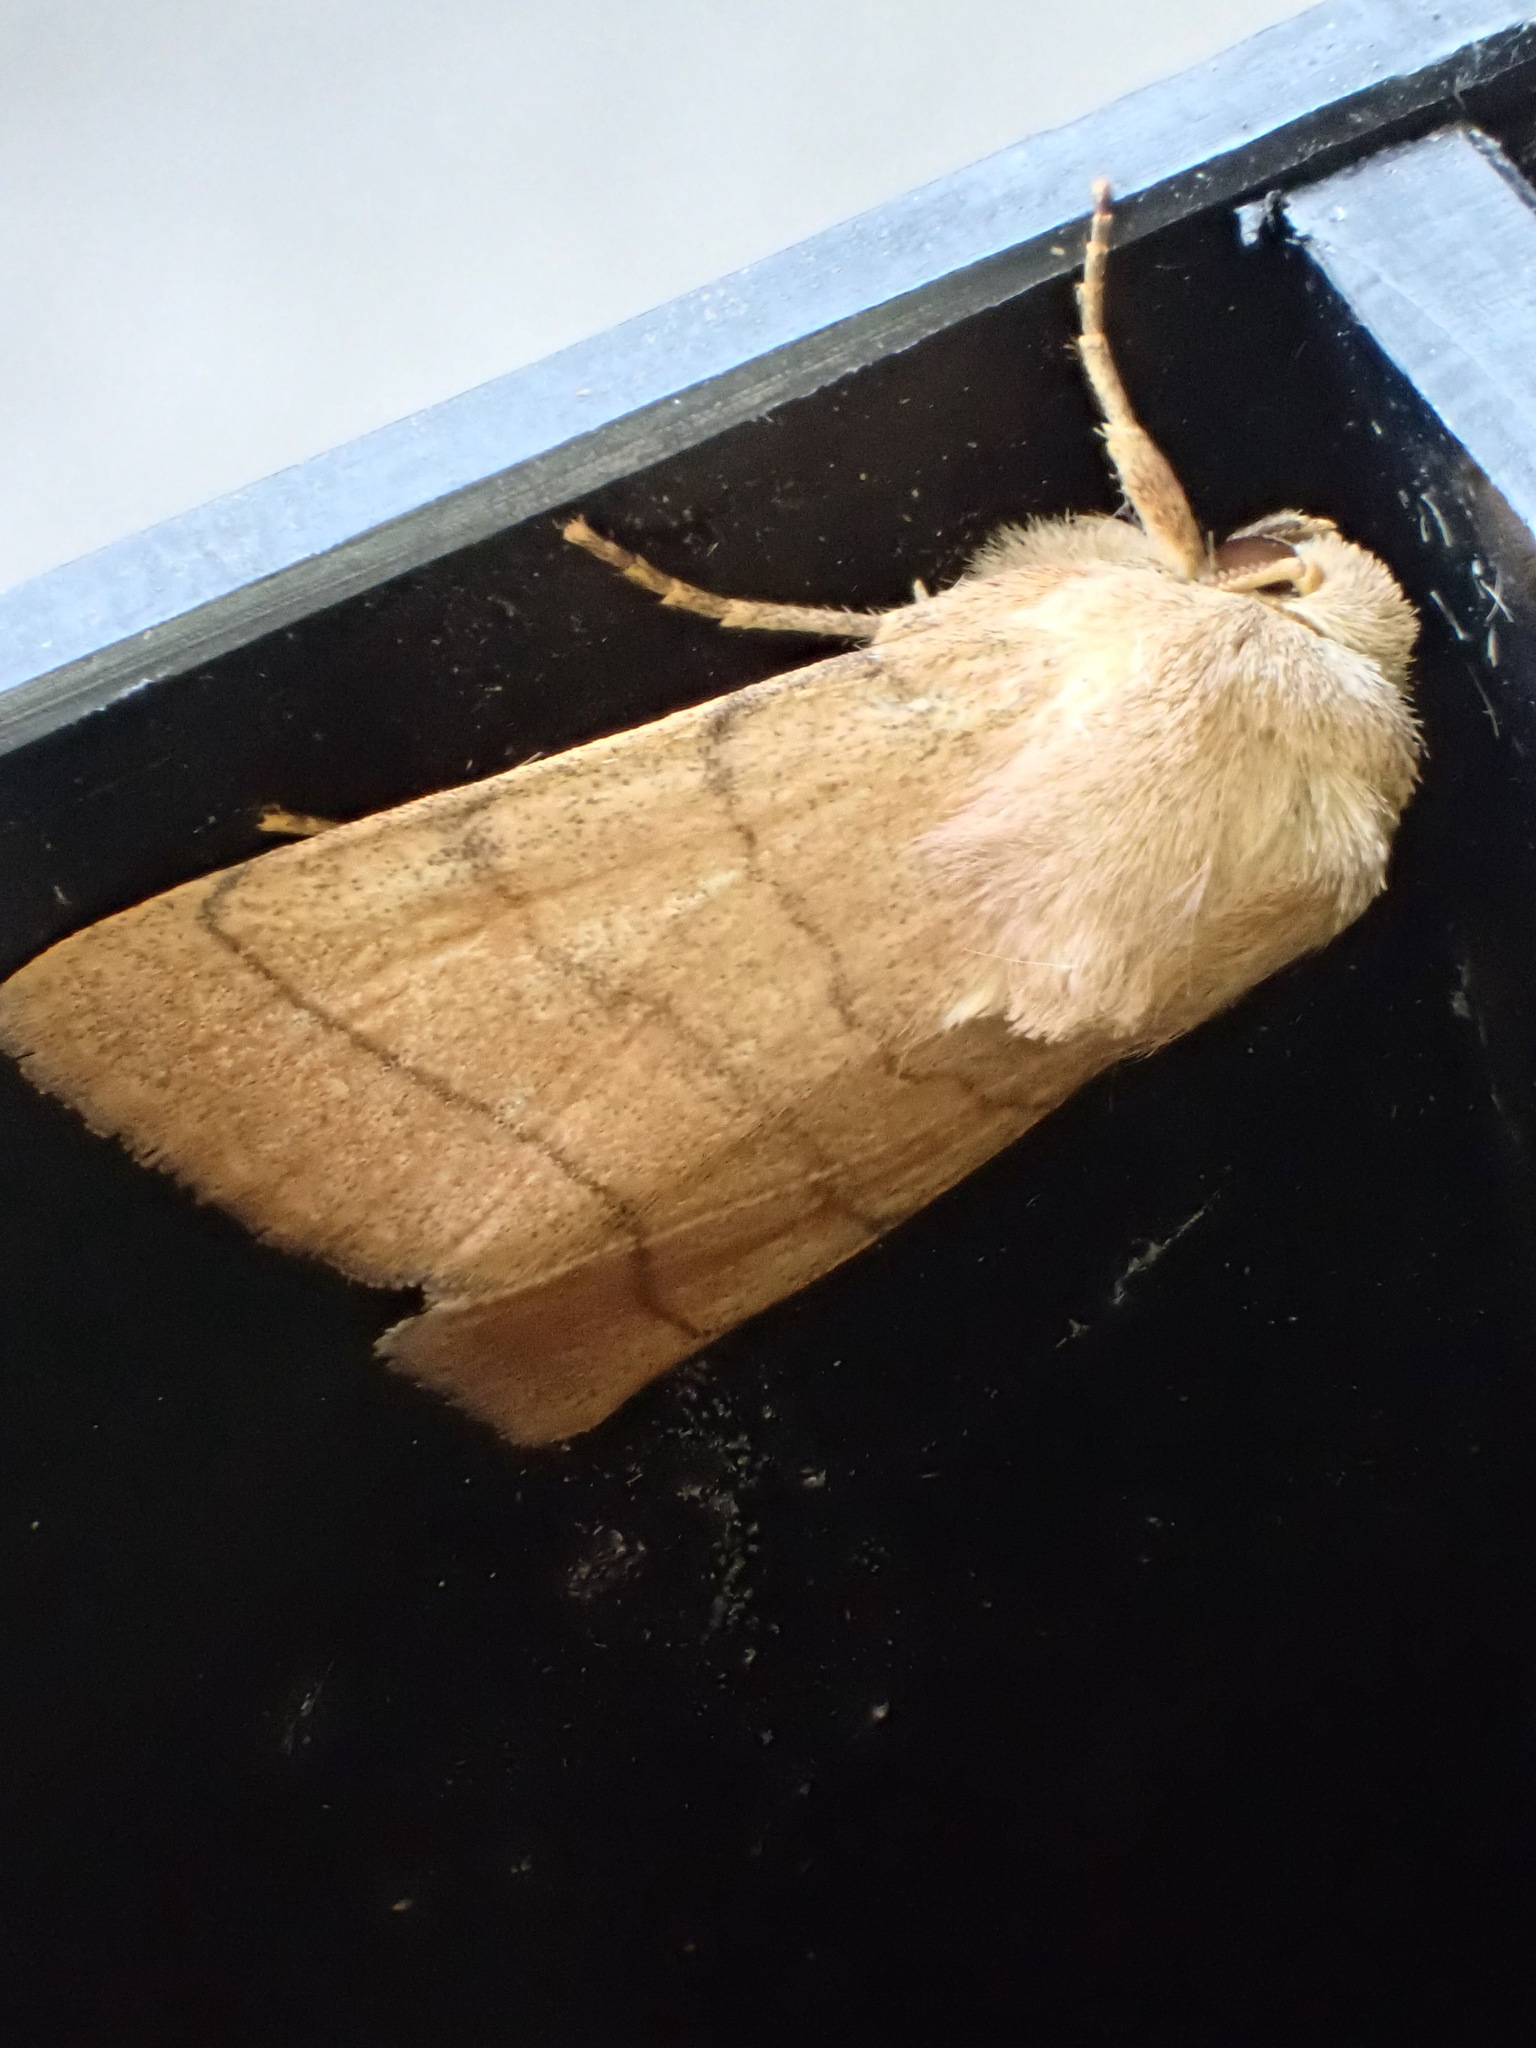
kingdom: Animalia
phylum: Arthropoda
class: Insecta
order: Lepidoptera
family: Noctuidae
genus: Charanyca
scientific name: Charanyca trigrammica
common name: Treble lines
